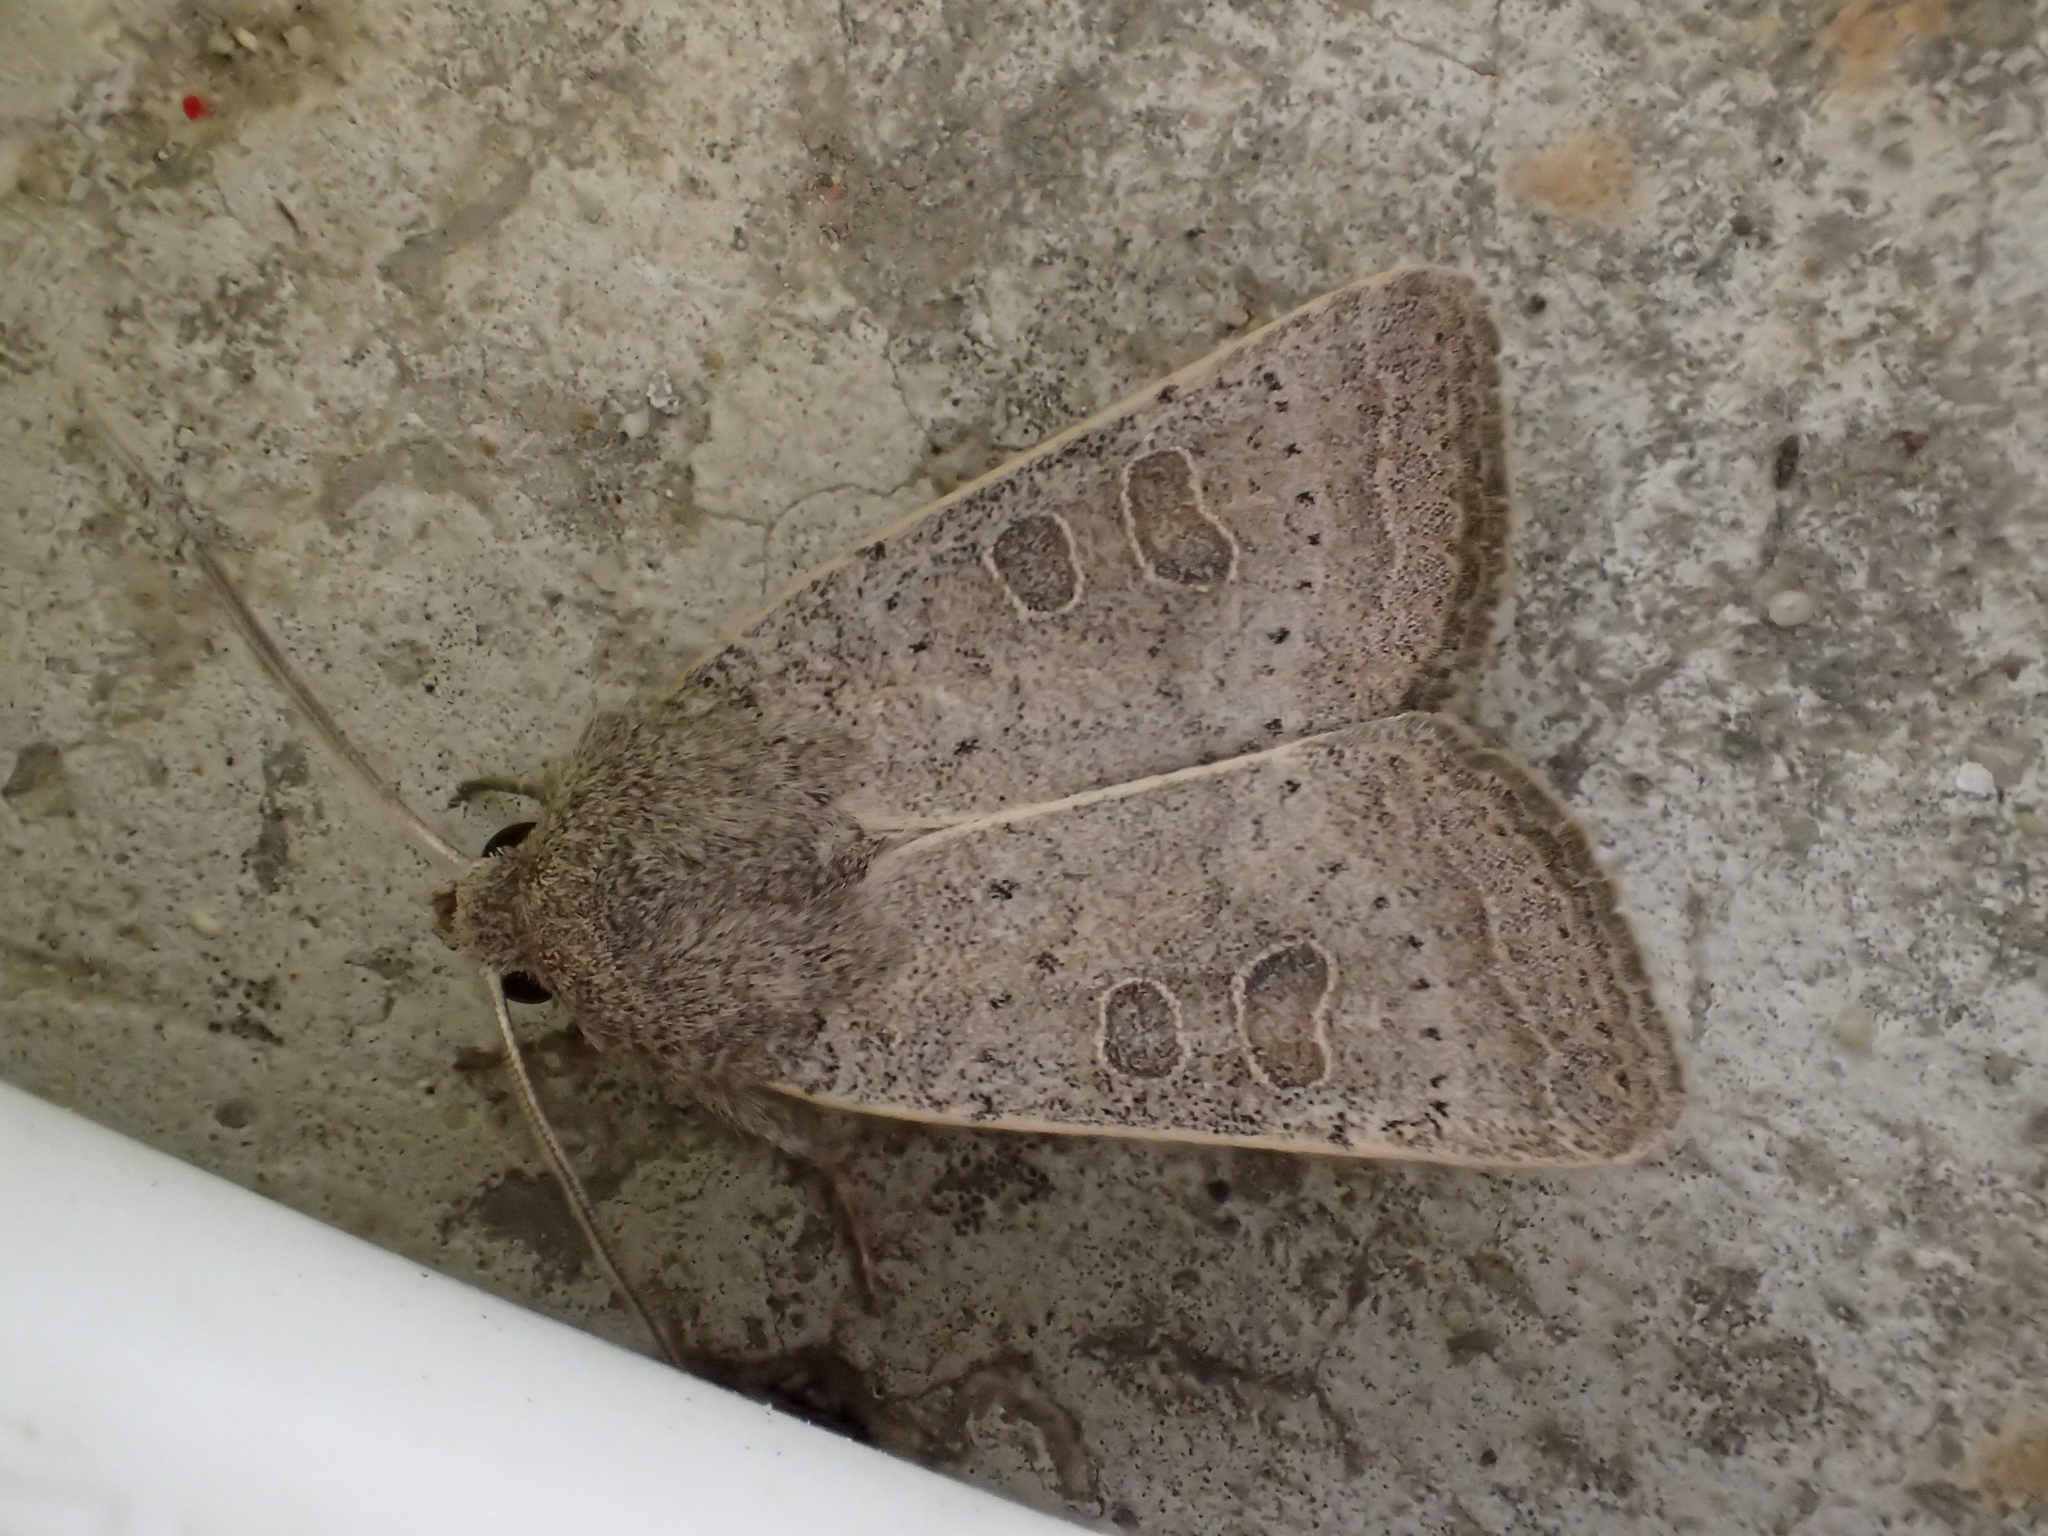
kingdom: Animalia
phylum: Arthropoda
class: Insecta
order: Lepidoptera
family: Noctuidae
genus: Hoplodrina
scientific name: Hoplodrina ambigua
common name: Vine's rustic
